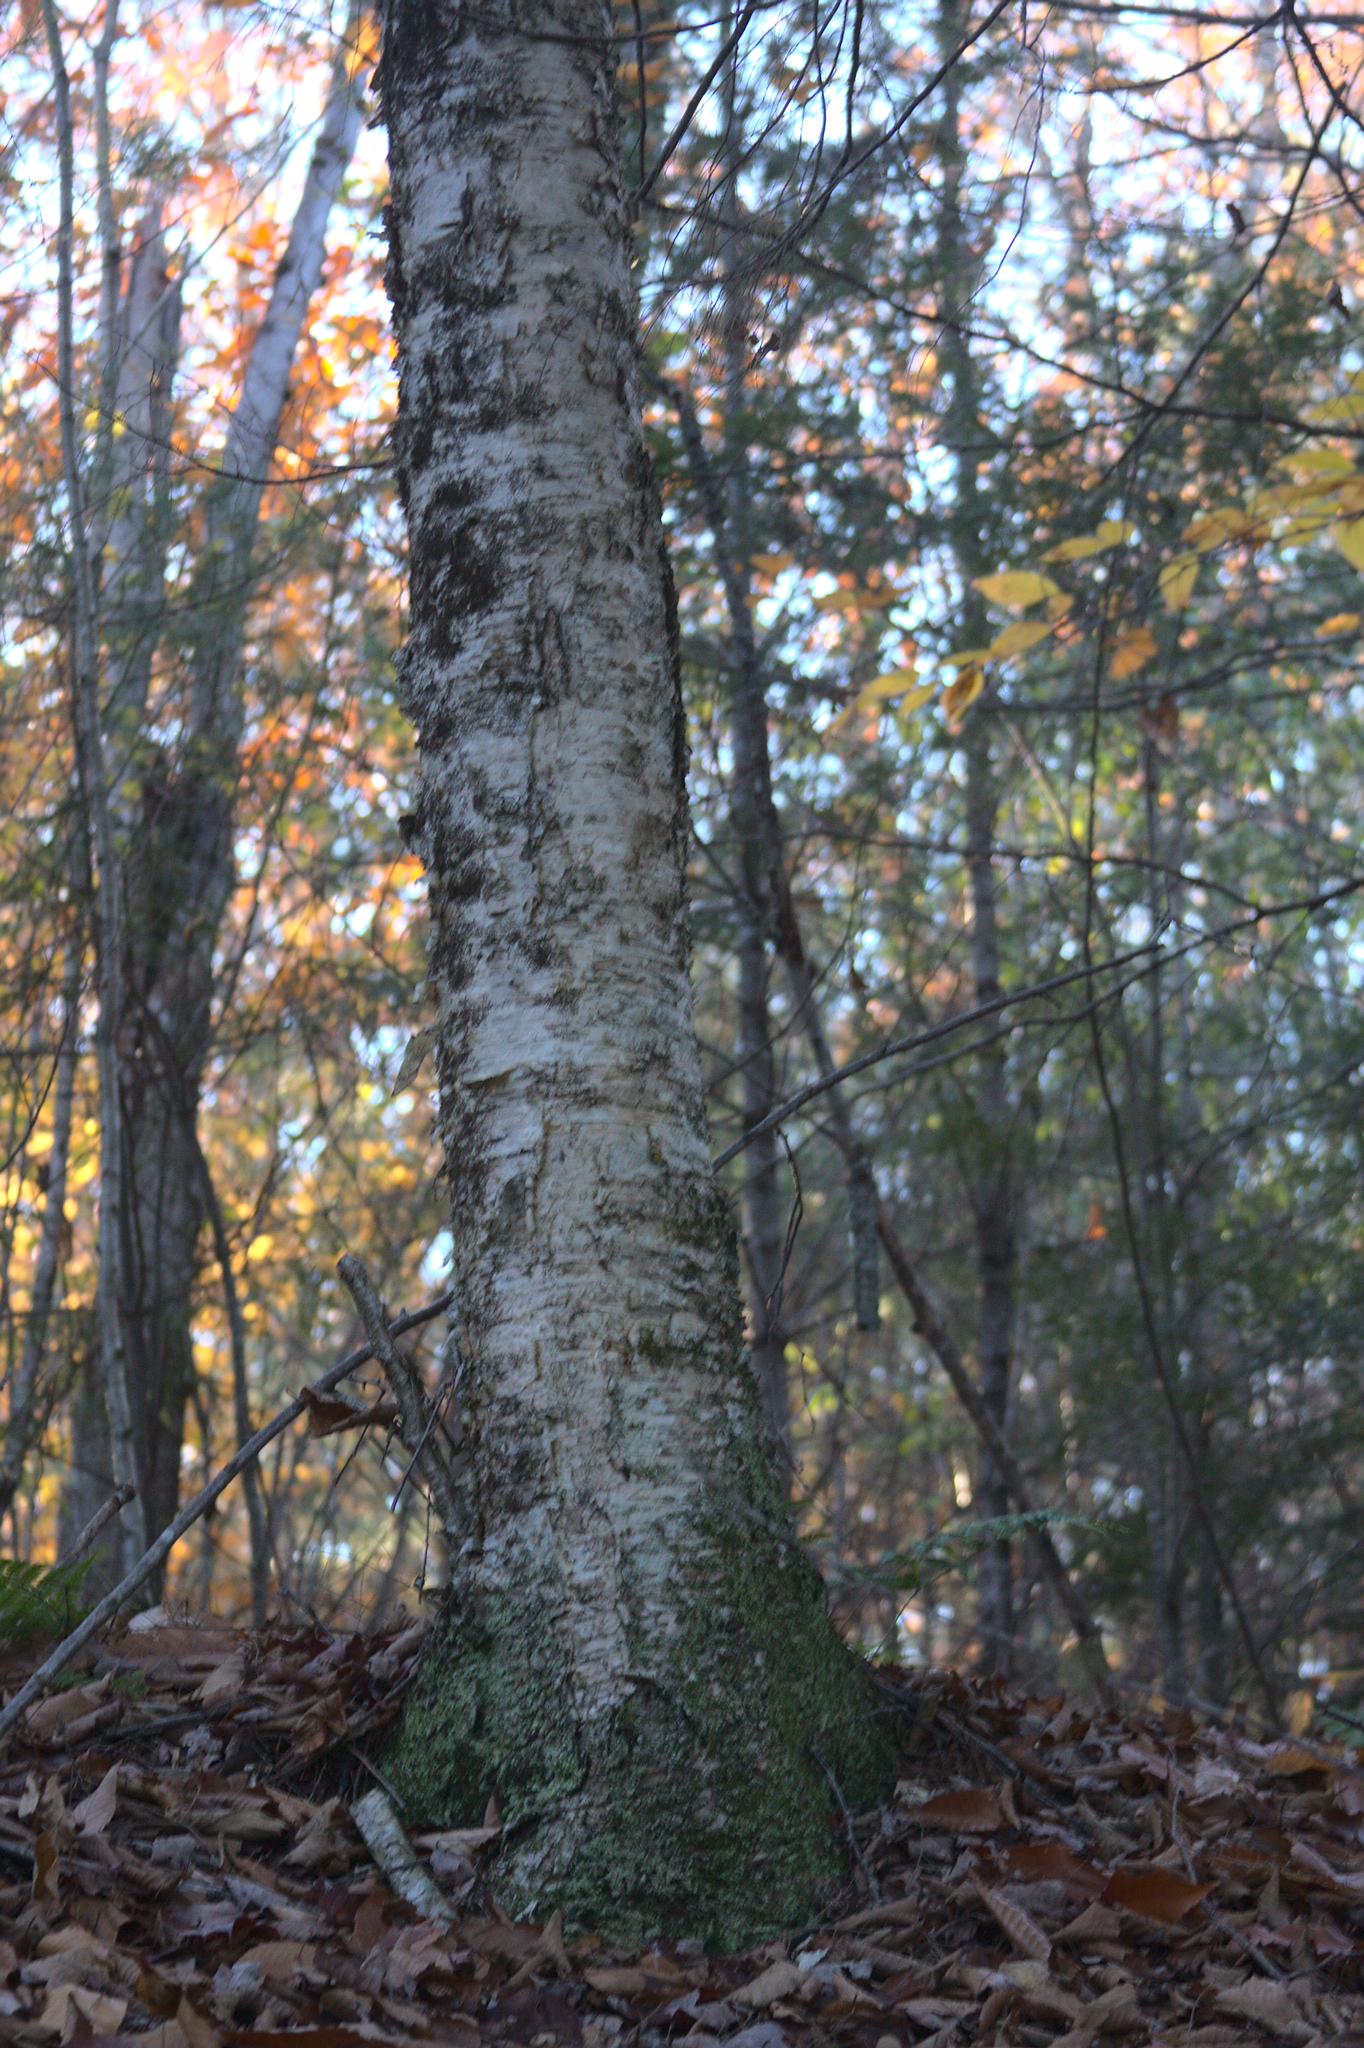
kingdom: Plantae
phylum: Tracheophyta
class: Magnoliopsida
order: Fagales
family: Betulaceae
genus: Betula
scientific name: Betula alleghaniensis
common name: Yellow birch
